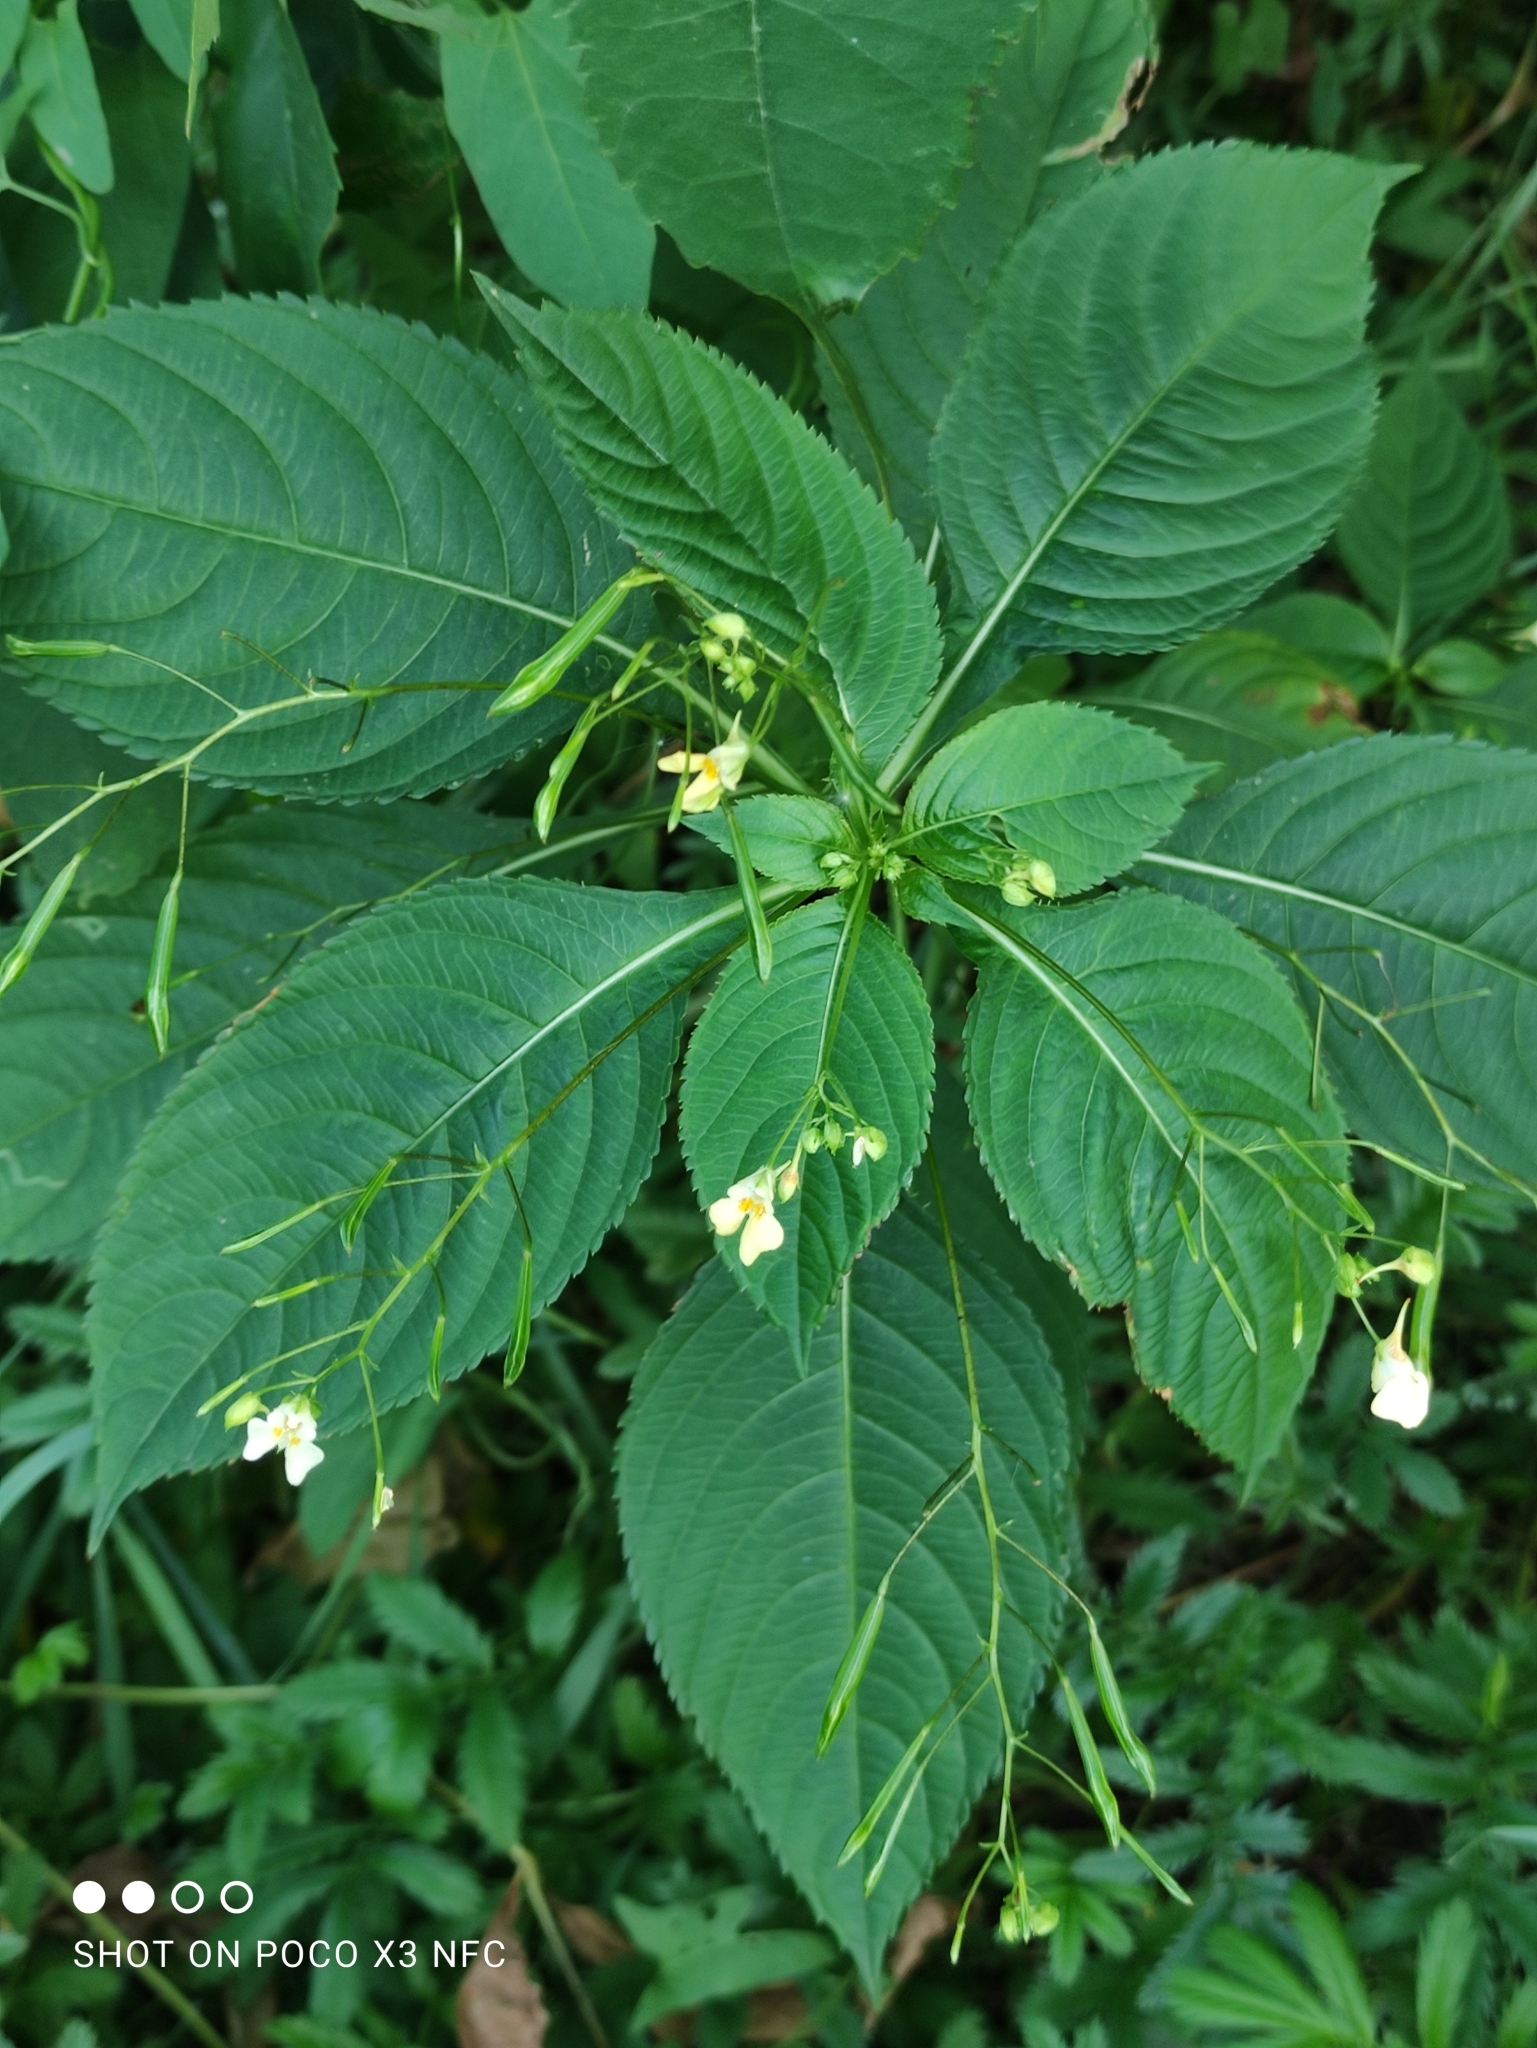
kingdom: Plantae
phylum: Tracheophyta
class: Magnoliopsida
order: Ericales
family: Balsaminaceae
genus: Impatiens
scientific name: Impatiens parviflora
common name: Small balsam
